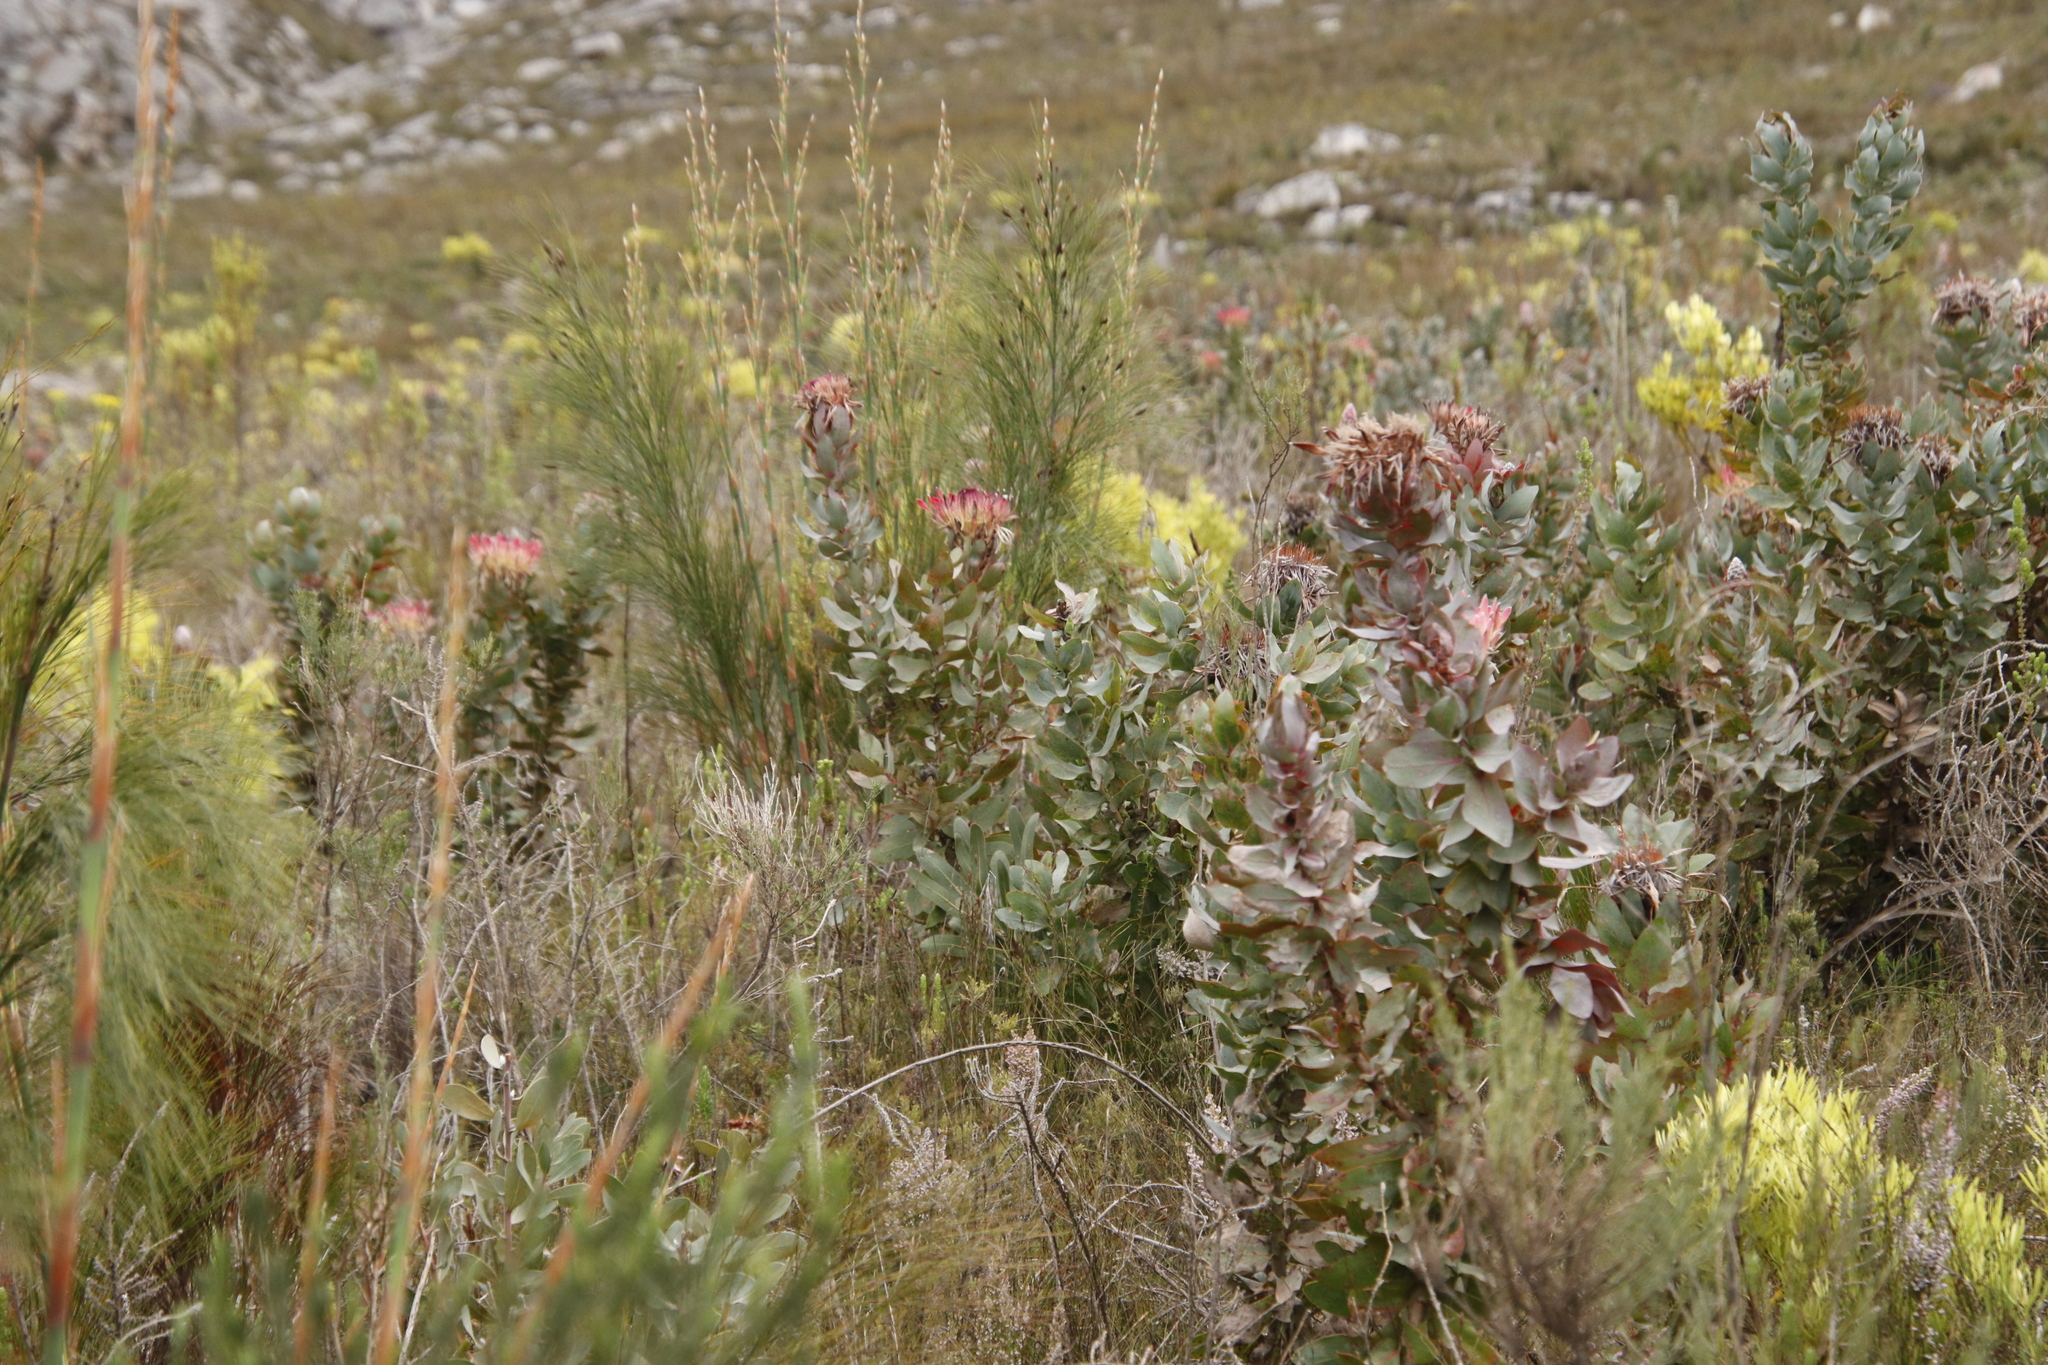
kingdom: Plantae
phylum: Tracheophyta
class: Magnoliopsida
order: Proteales
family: Proteaceae
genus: Protea
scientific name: Protea eximia
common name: Broad-leaved sugarbush
